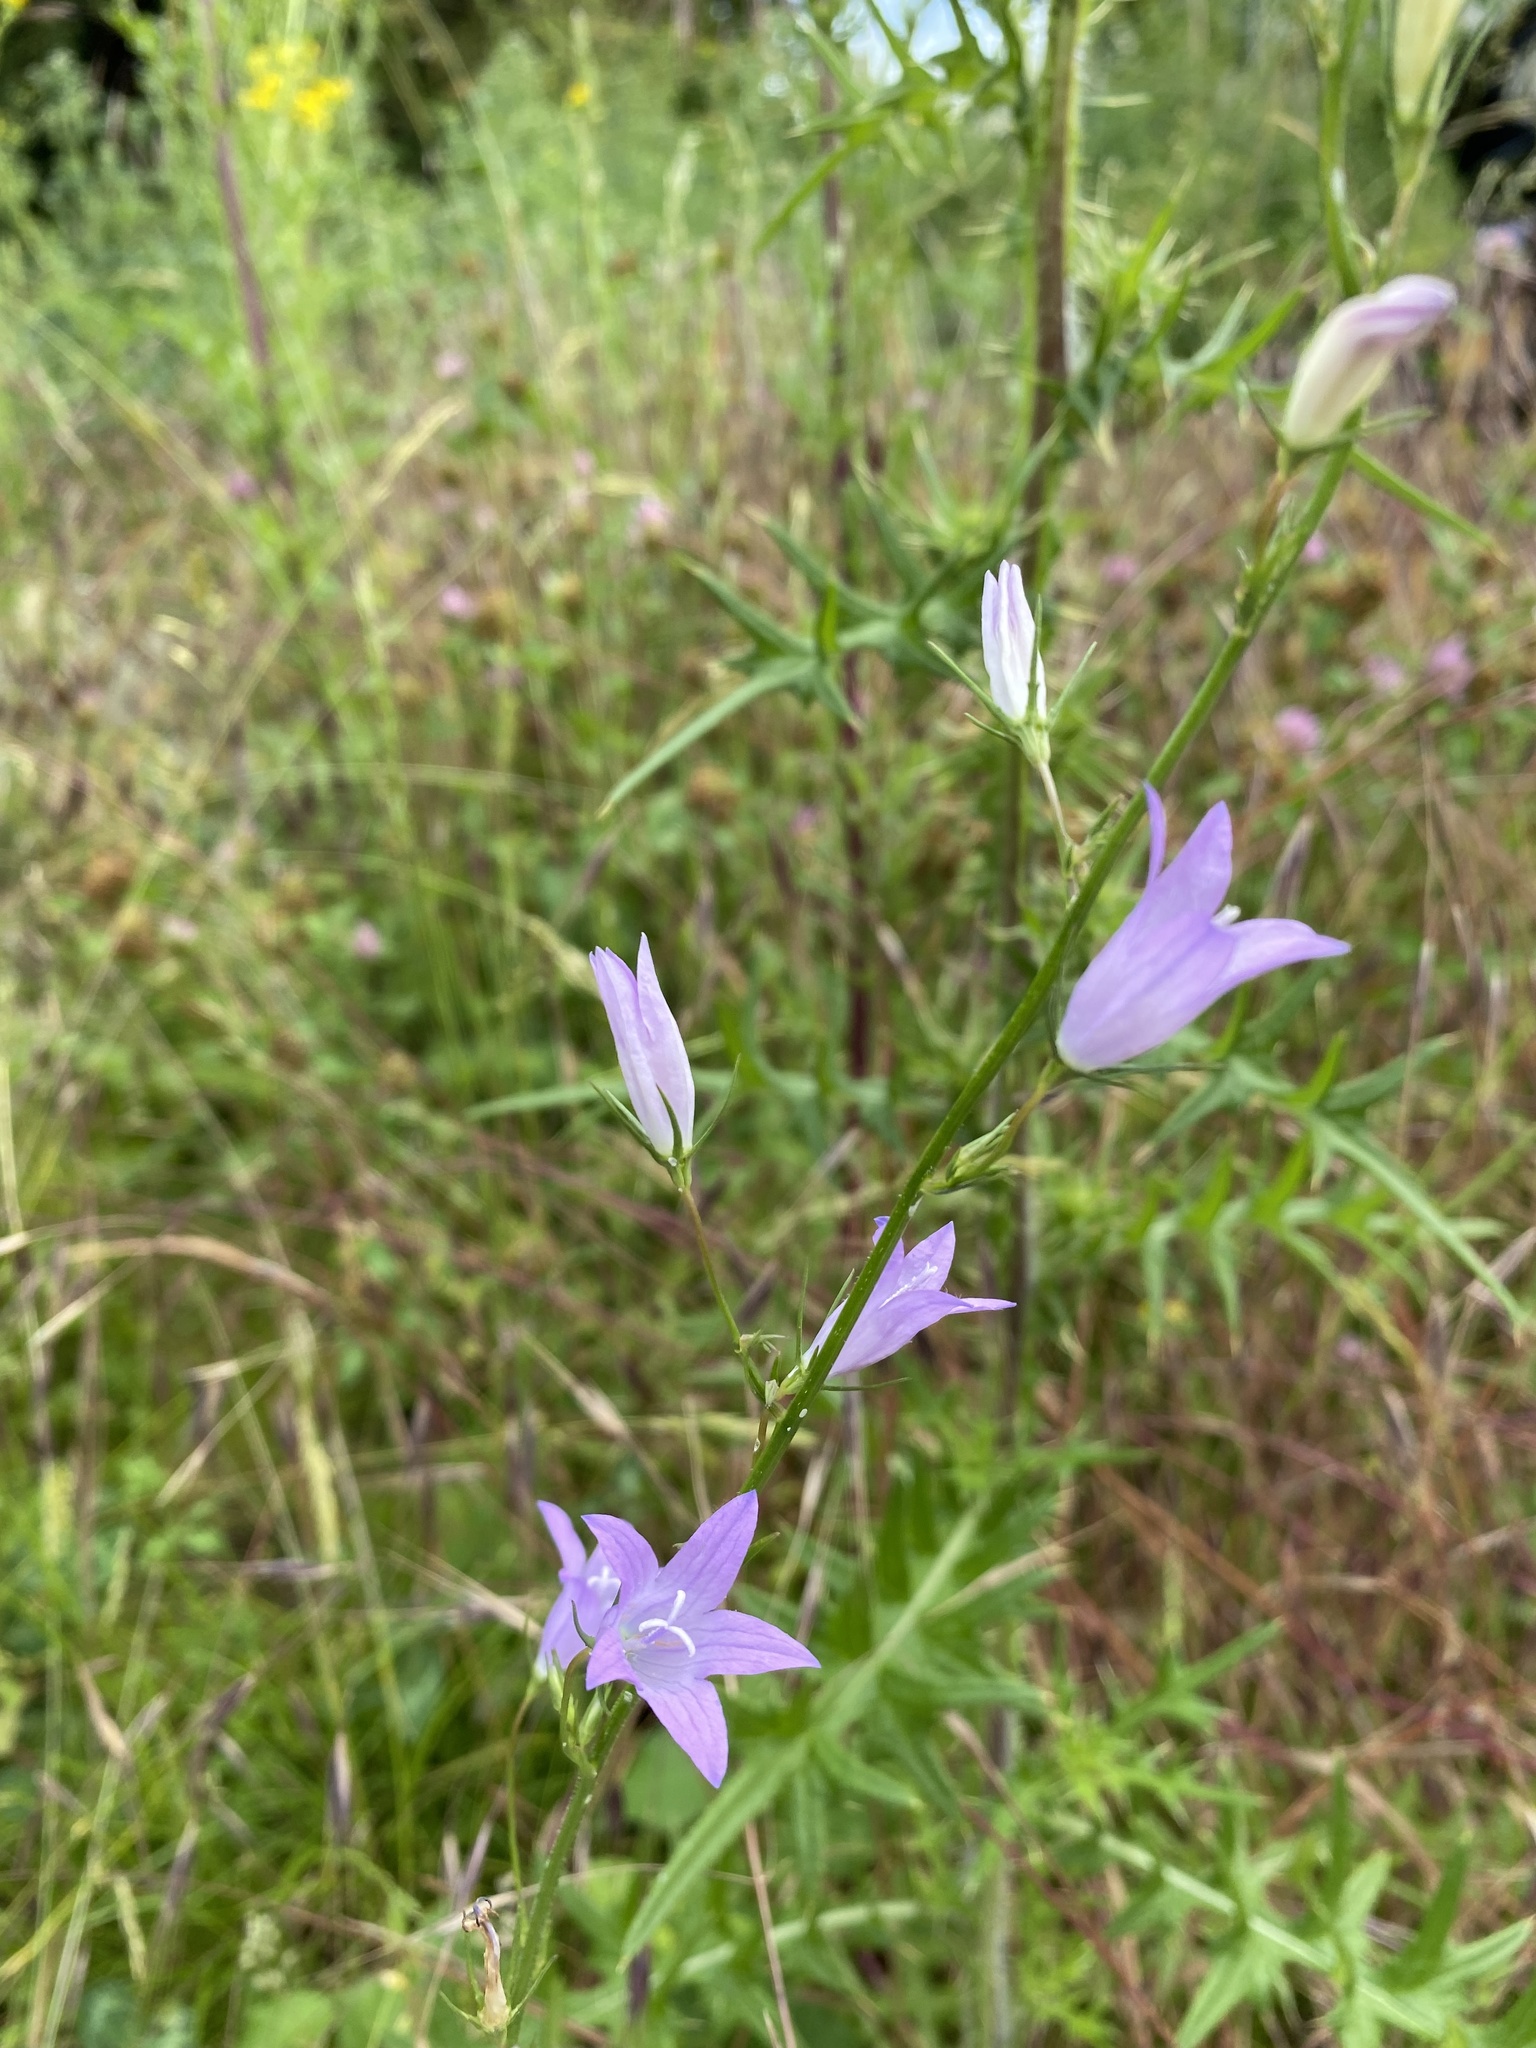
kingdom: Plantae
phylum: Tracheophyta
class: Magnoliopsida
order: Asterales
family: Campanulaceae
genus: Campanula
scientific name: Campanula rapunculus
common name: Rampion bellflower
